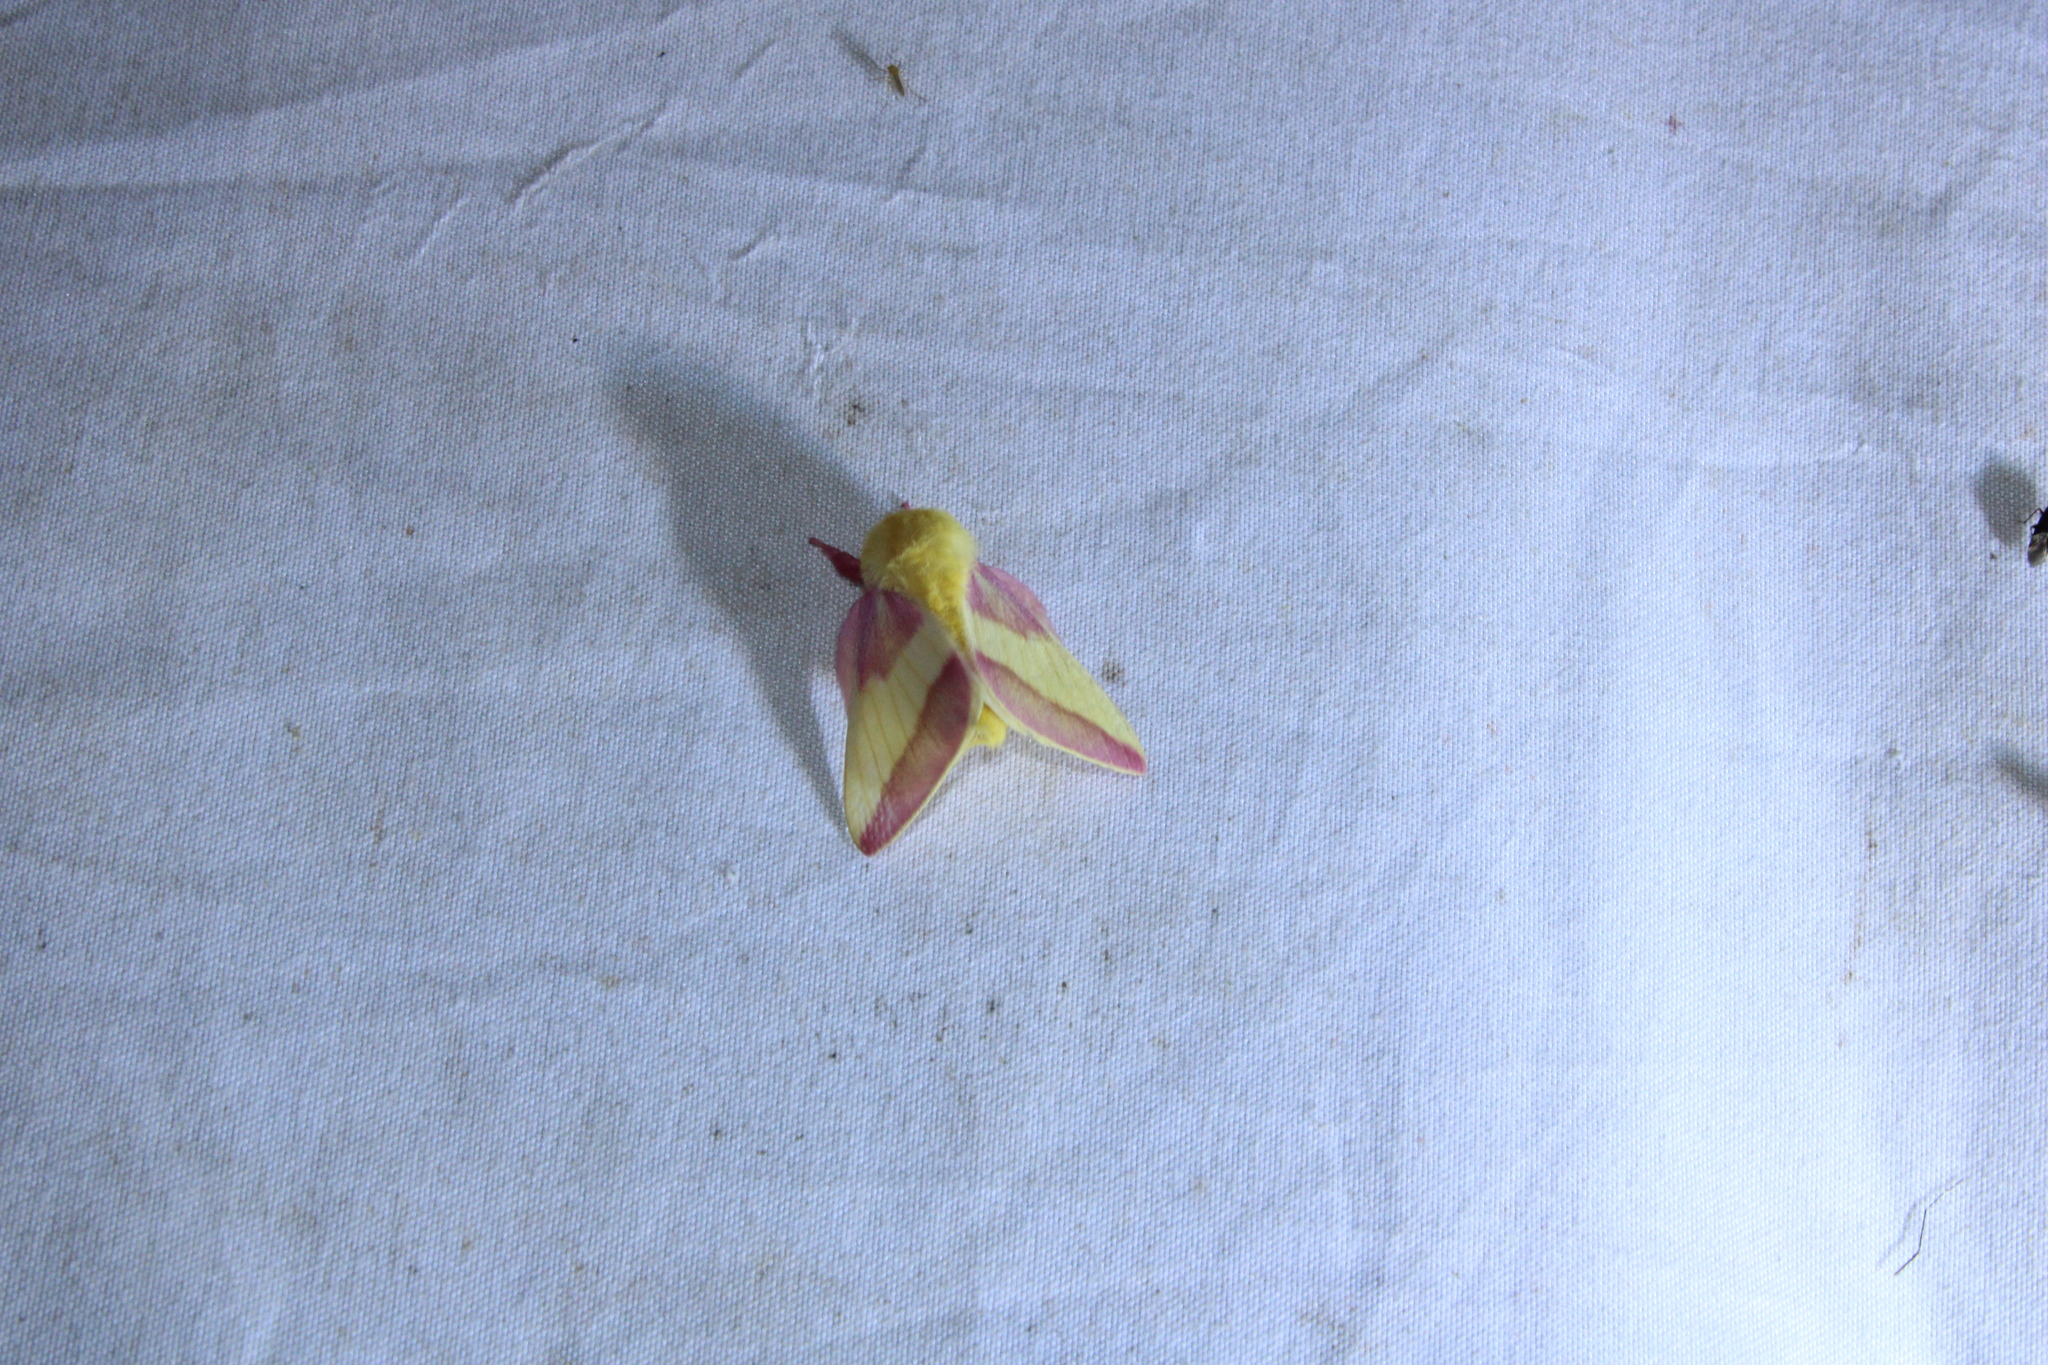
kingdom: Animalia
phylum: Arthropoda
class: Insecta
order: Lepidoptera
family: Saturniidae
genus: Dryocampa
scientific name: Dryocampa rubicunda
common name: Rosy maple moth
